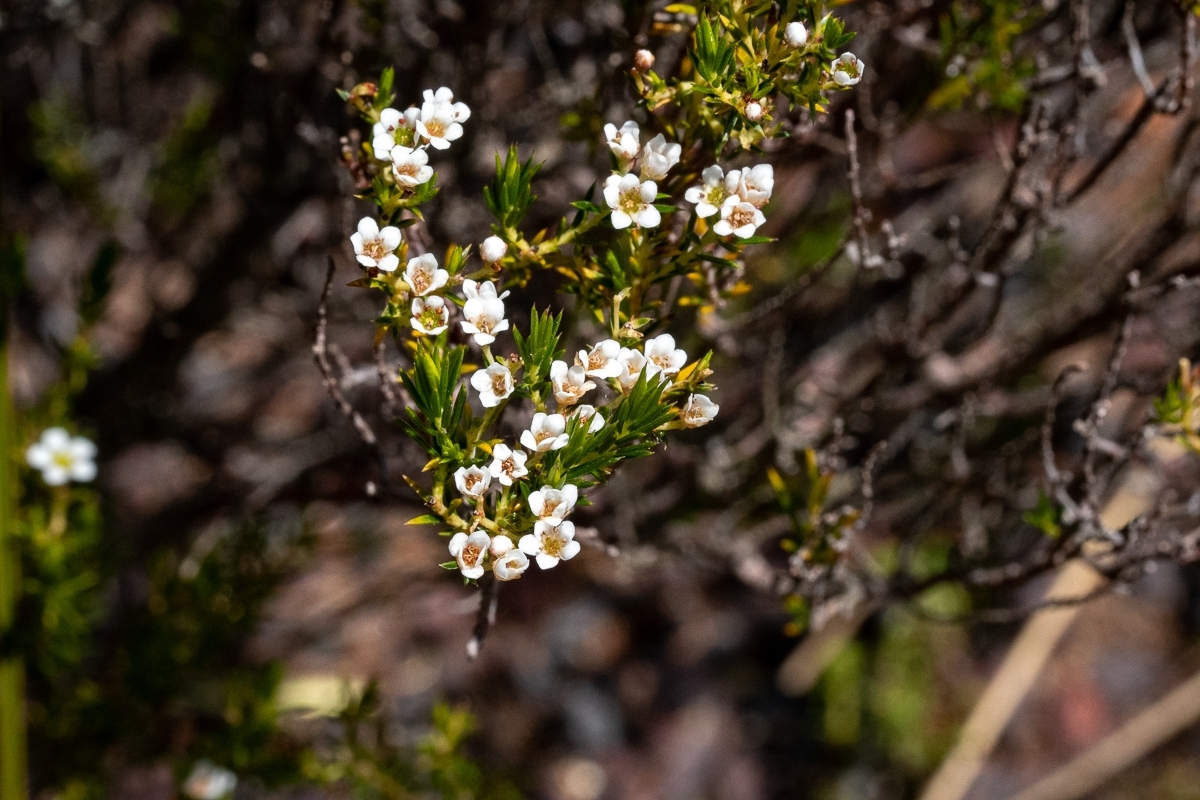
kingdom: Plantae
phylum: Tracheophyta
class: Magnoliopsida
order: Sapindales
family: Rutaceae
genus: Diosma
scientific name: Diosma hirsuta
